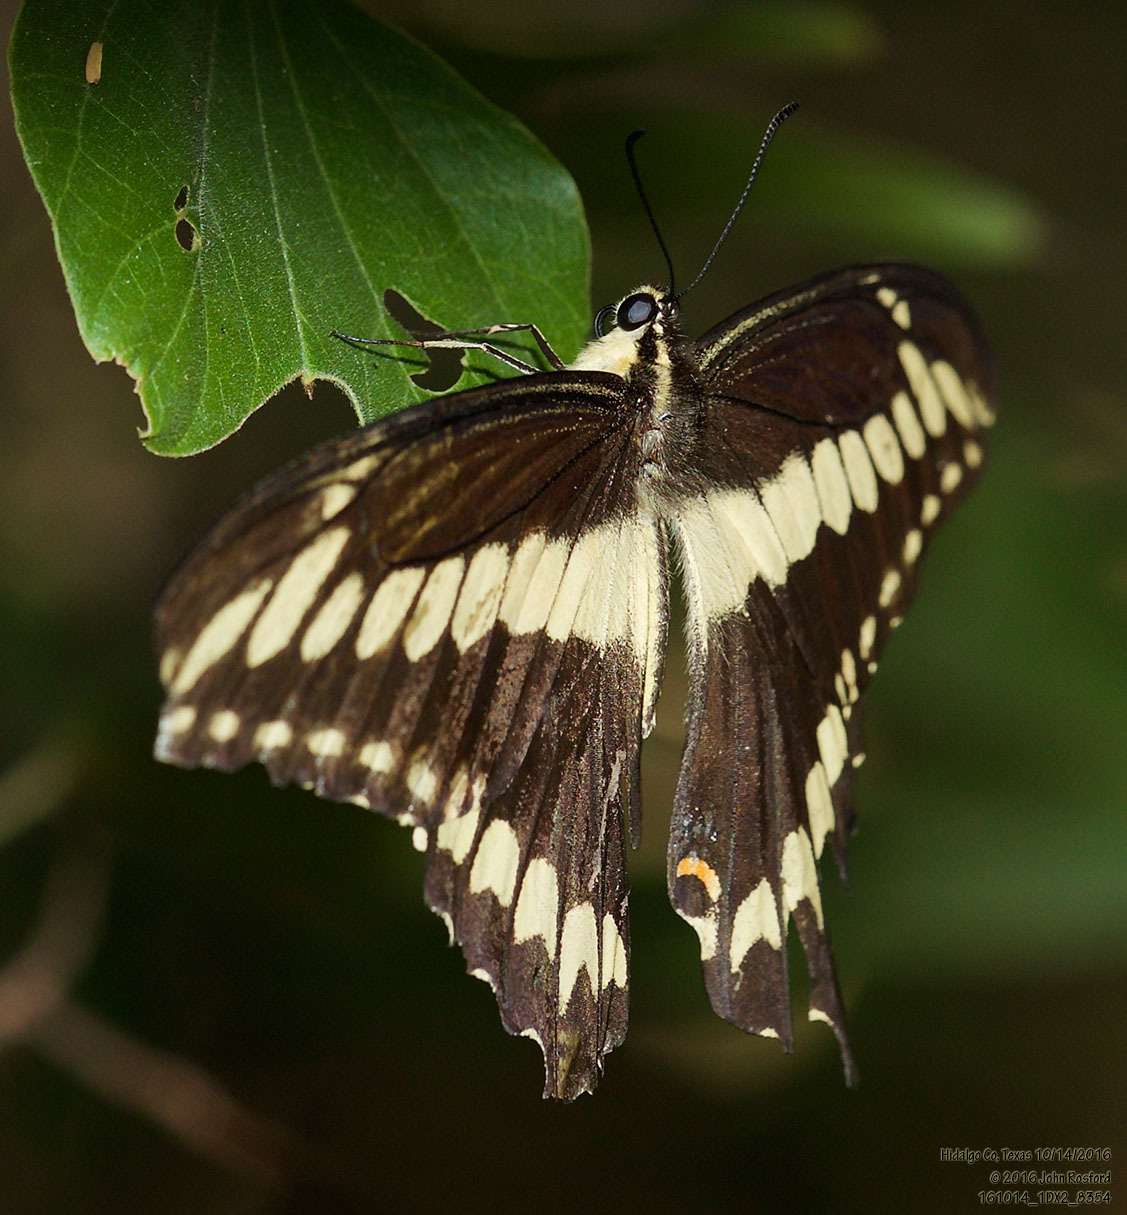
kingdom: Animalia
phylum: Arthropoda
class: Insecta
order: Lepidoptera
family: Papilionidae
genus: Papilio
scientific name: Papilio ornythion
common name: Ornythion swallowtail
